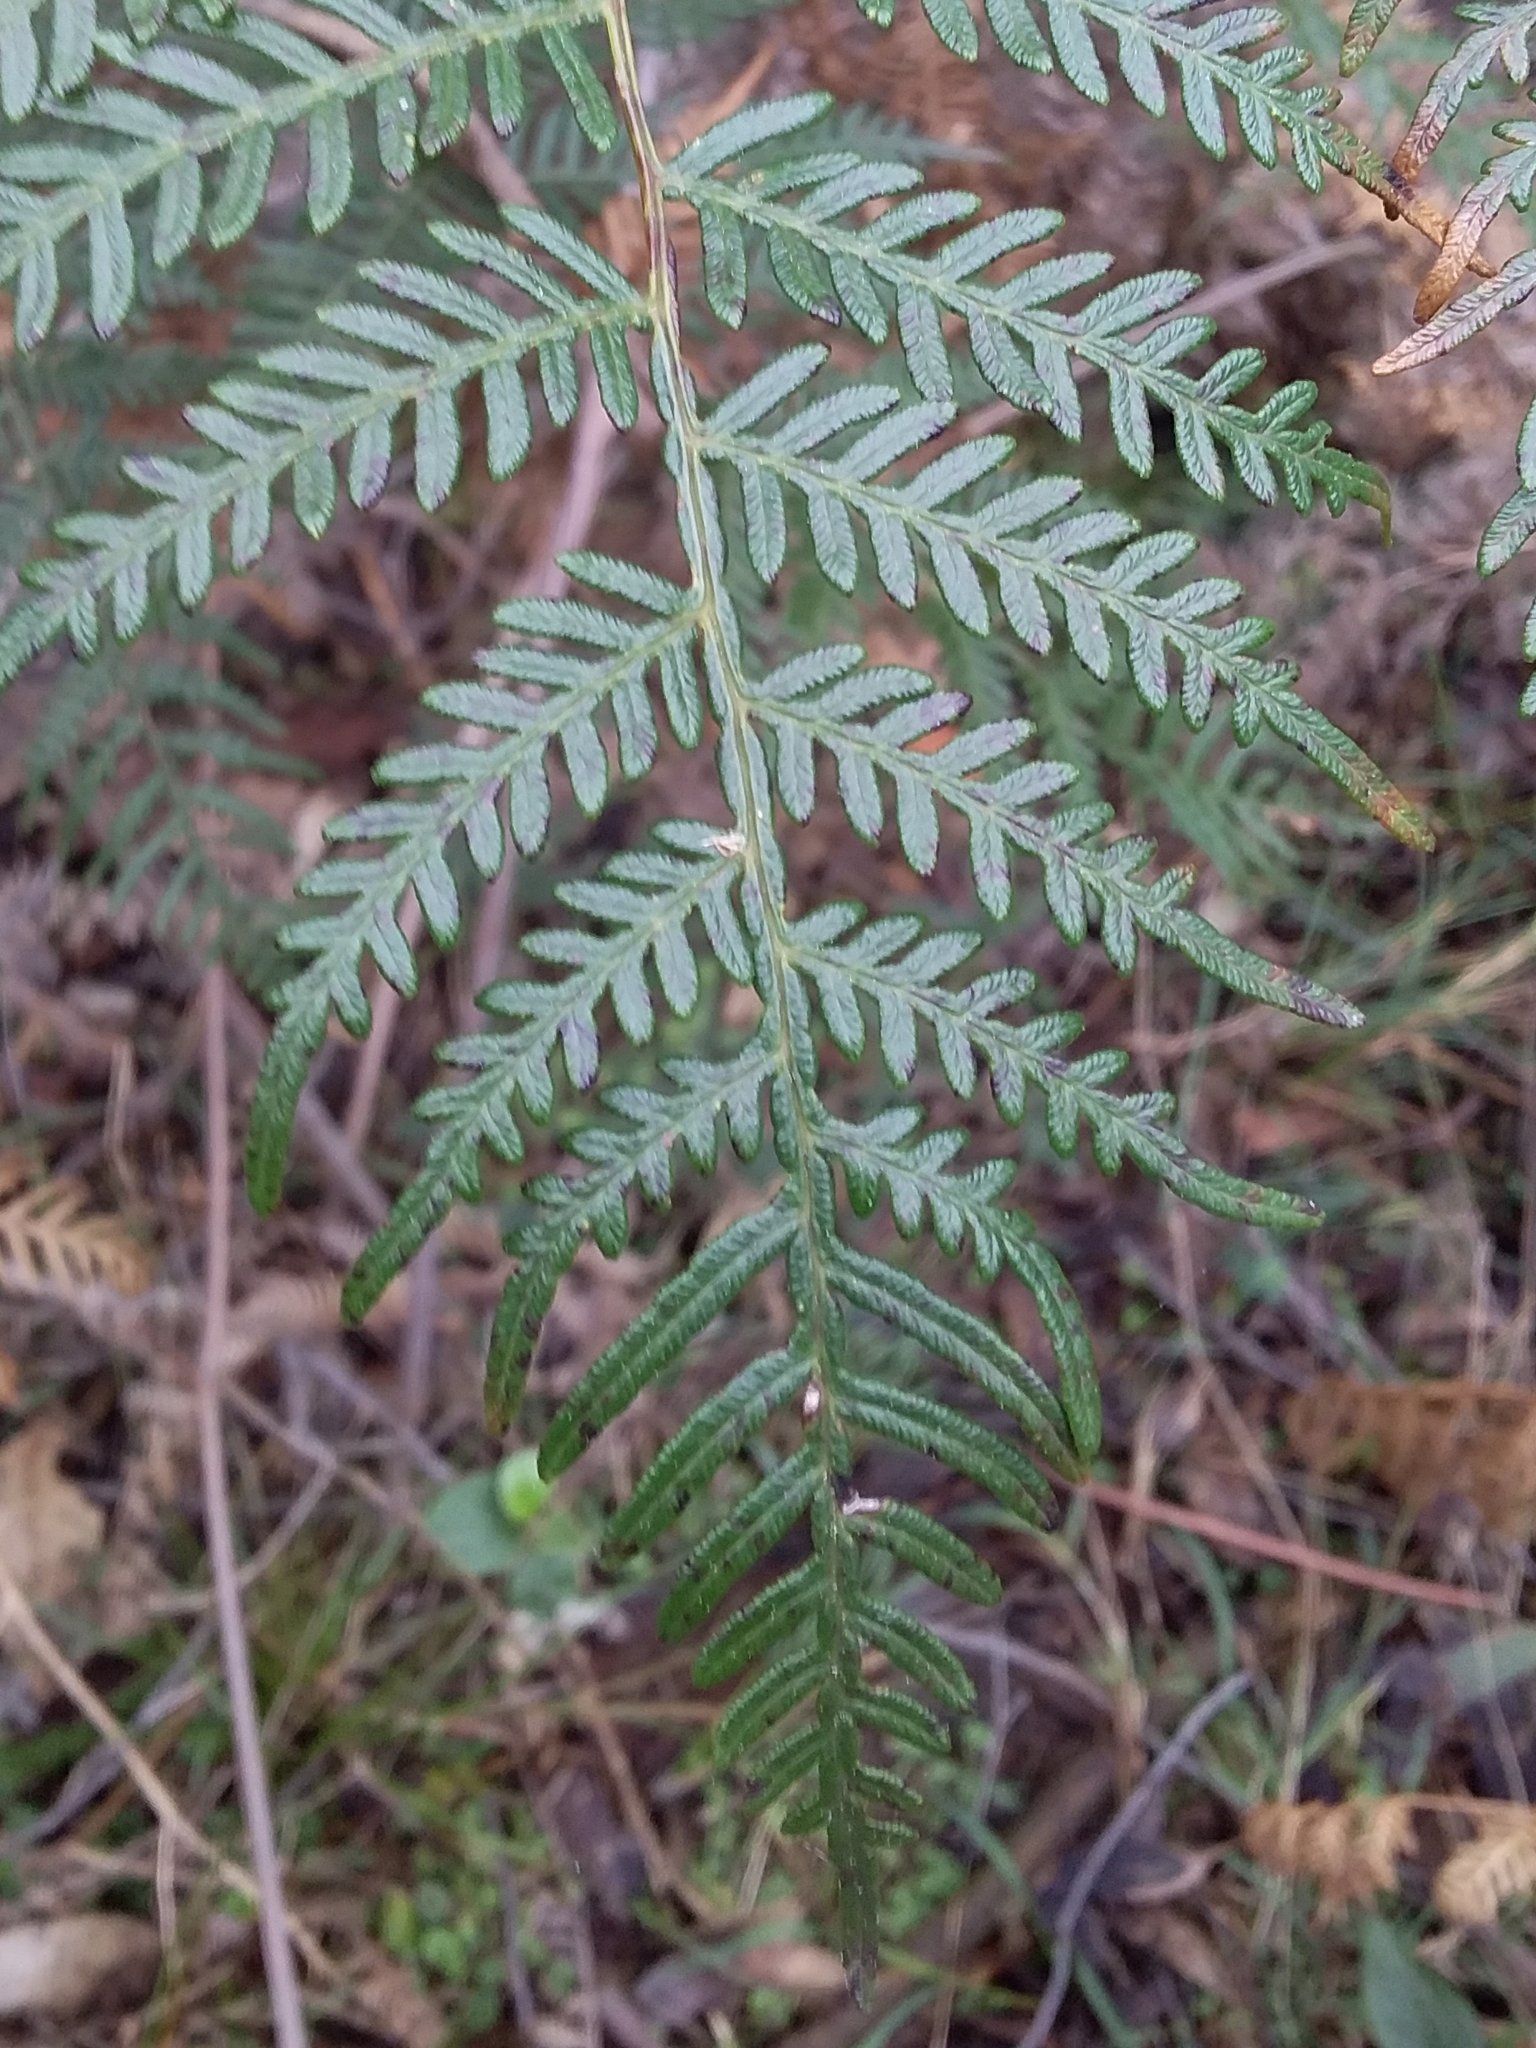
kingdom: Plantae
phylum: Tracheophyta
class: Polypodiopsida
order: Polypodiales
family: Dennstaedtiaceae
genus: Pteridium
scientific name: Pteridium esculentum
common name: Bracken fern
